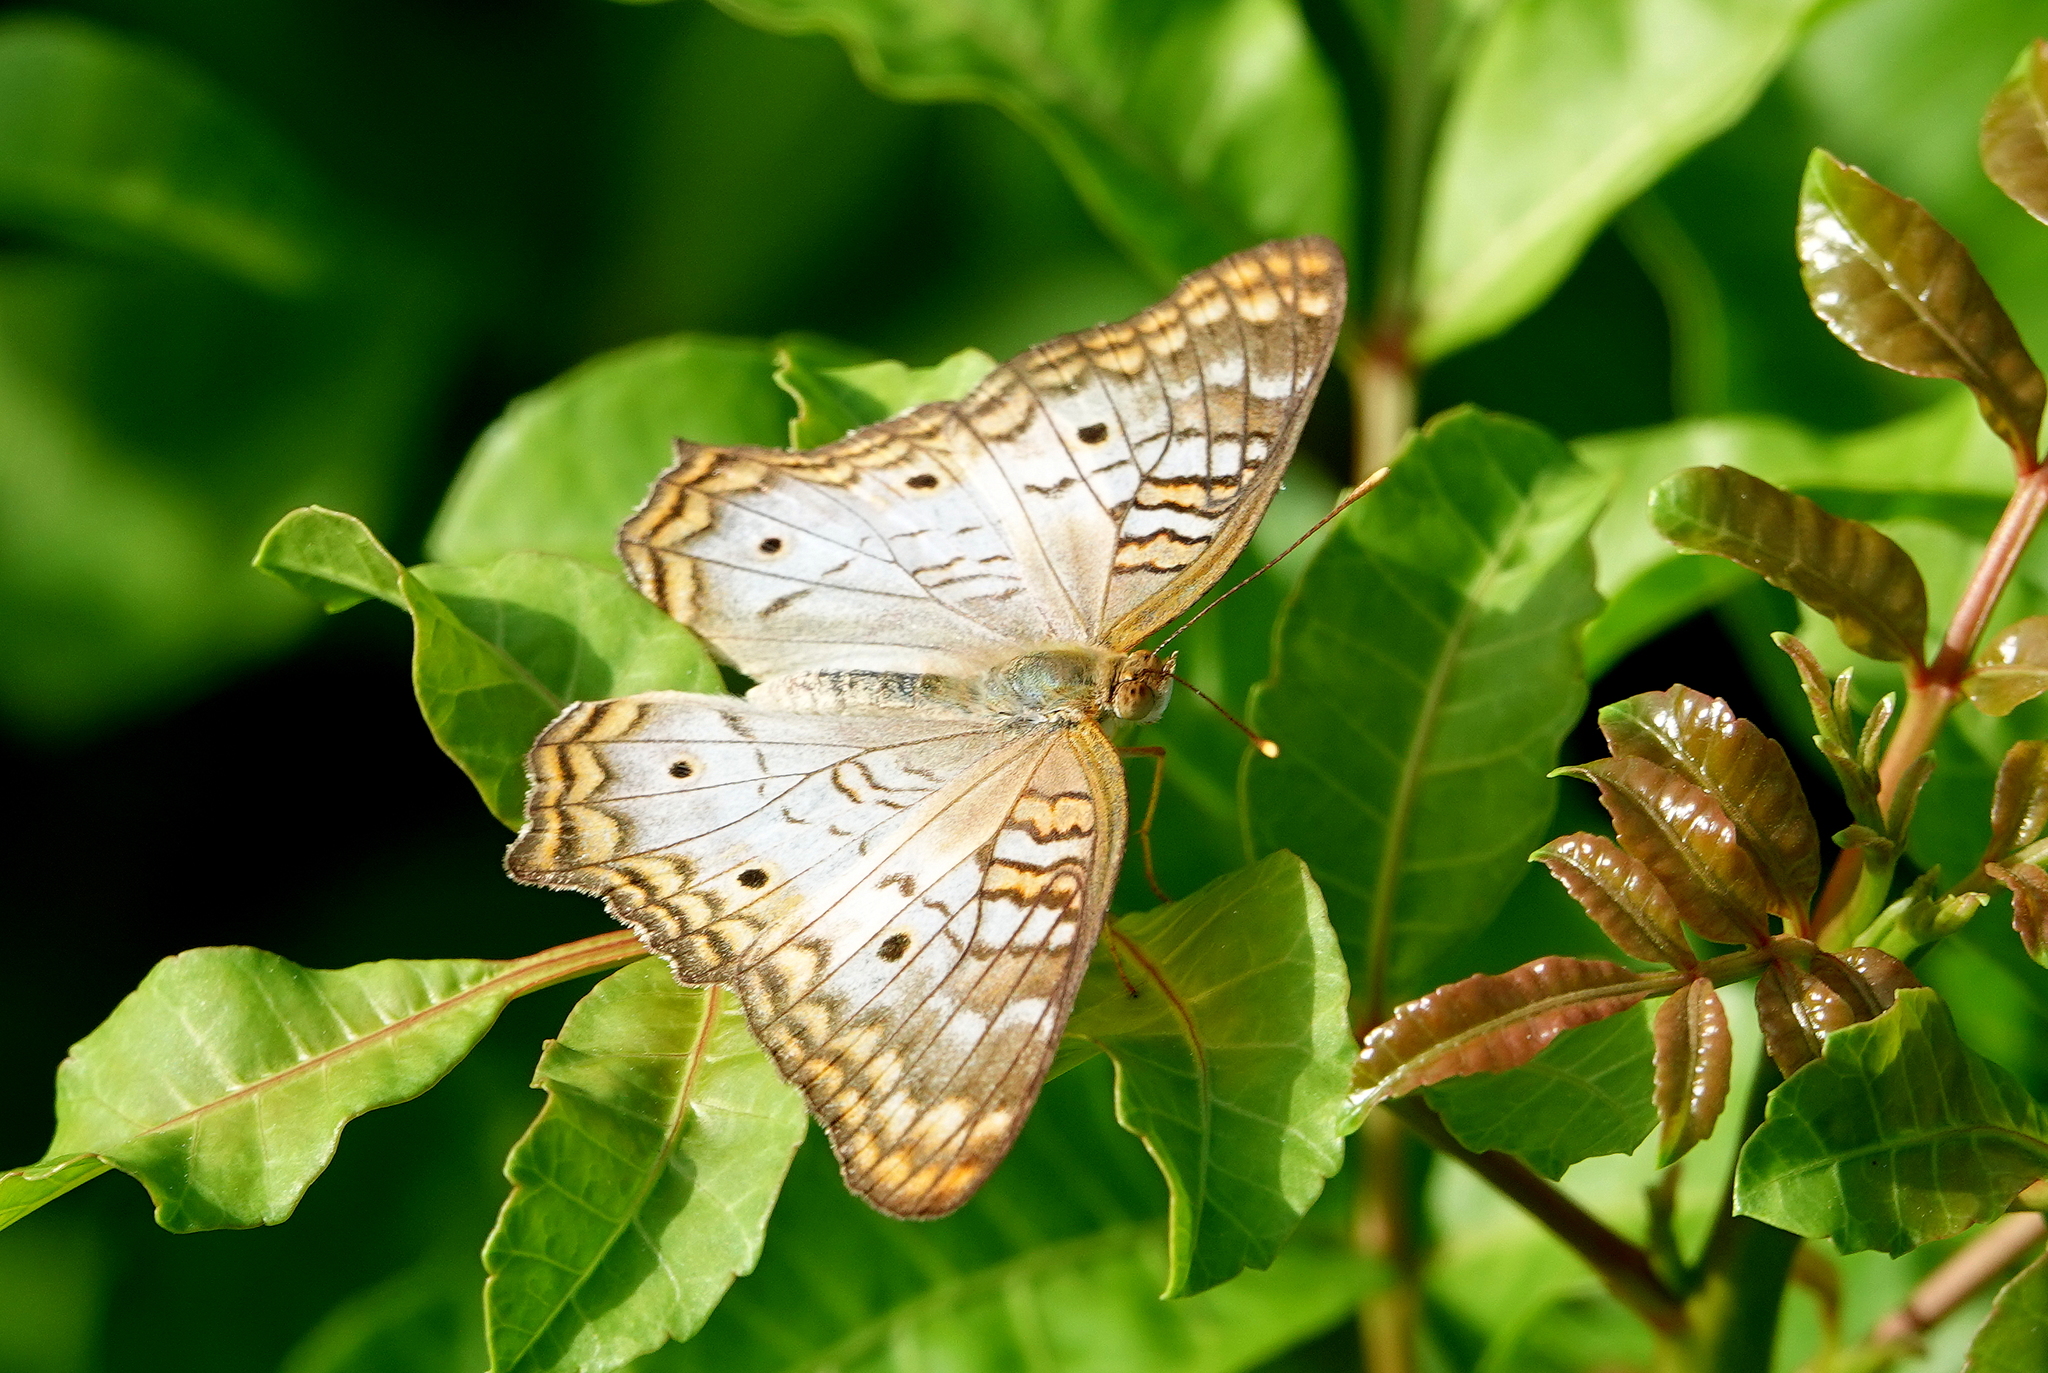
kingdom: Animalia
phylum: Arthropoda
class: Insecta
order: Lepidoptera
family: Nymphalidae
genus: Anartia
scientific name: Anartia jatrophae
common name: White peacock
